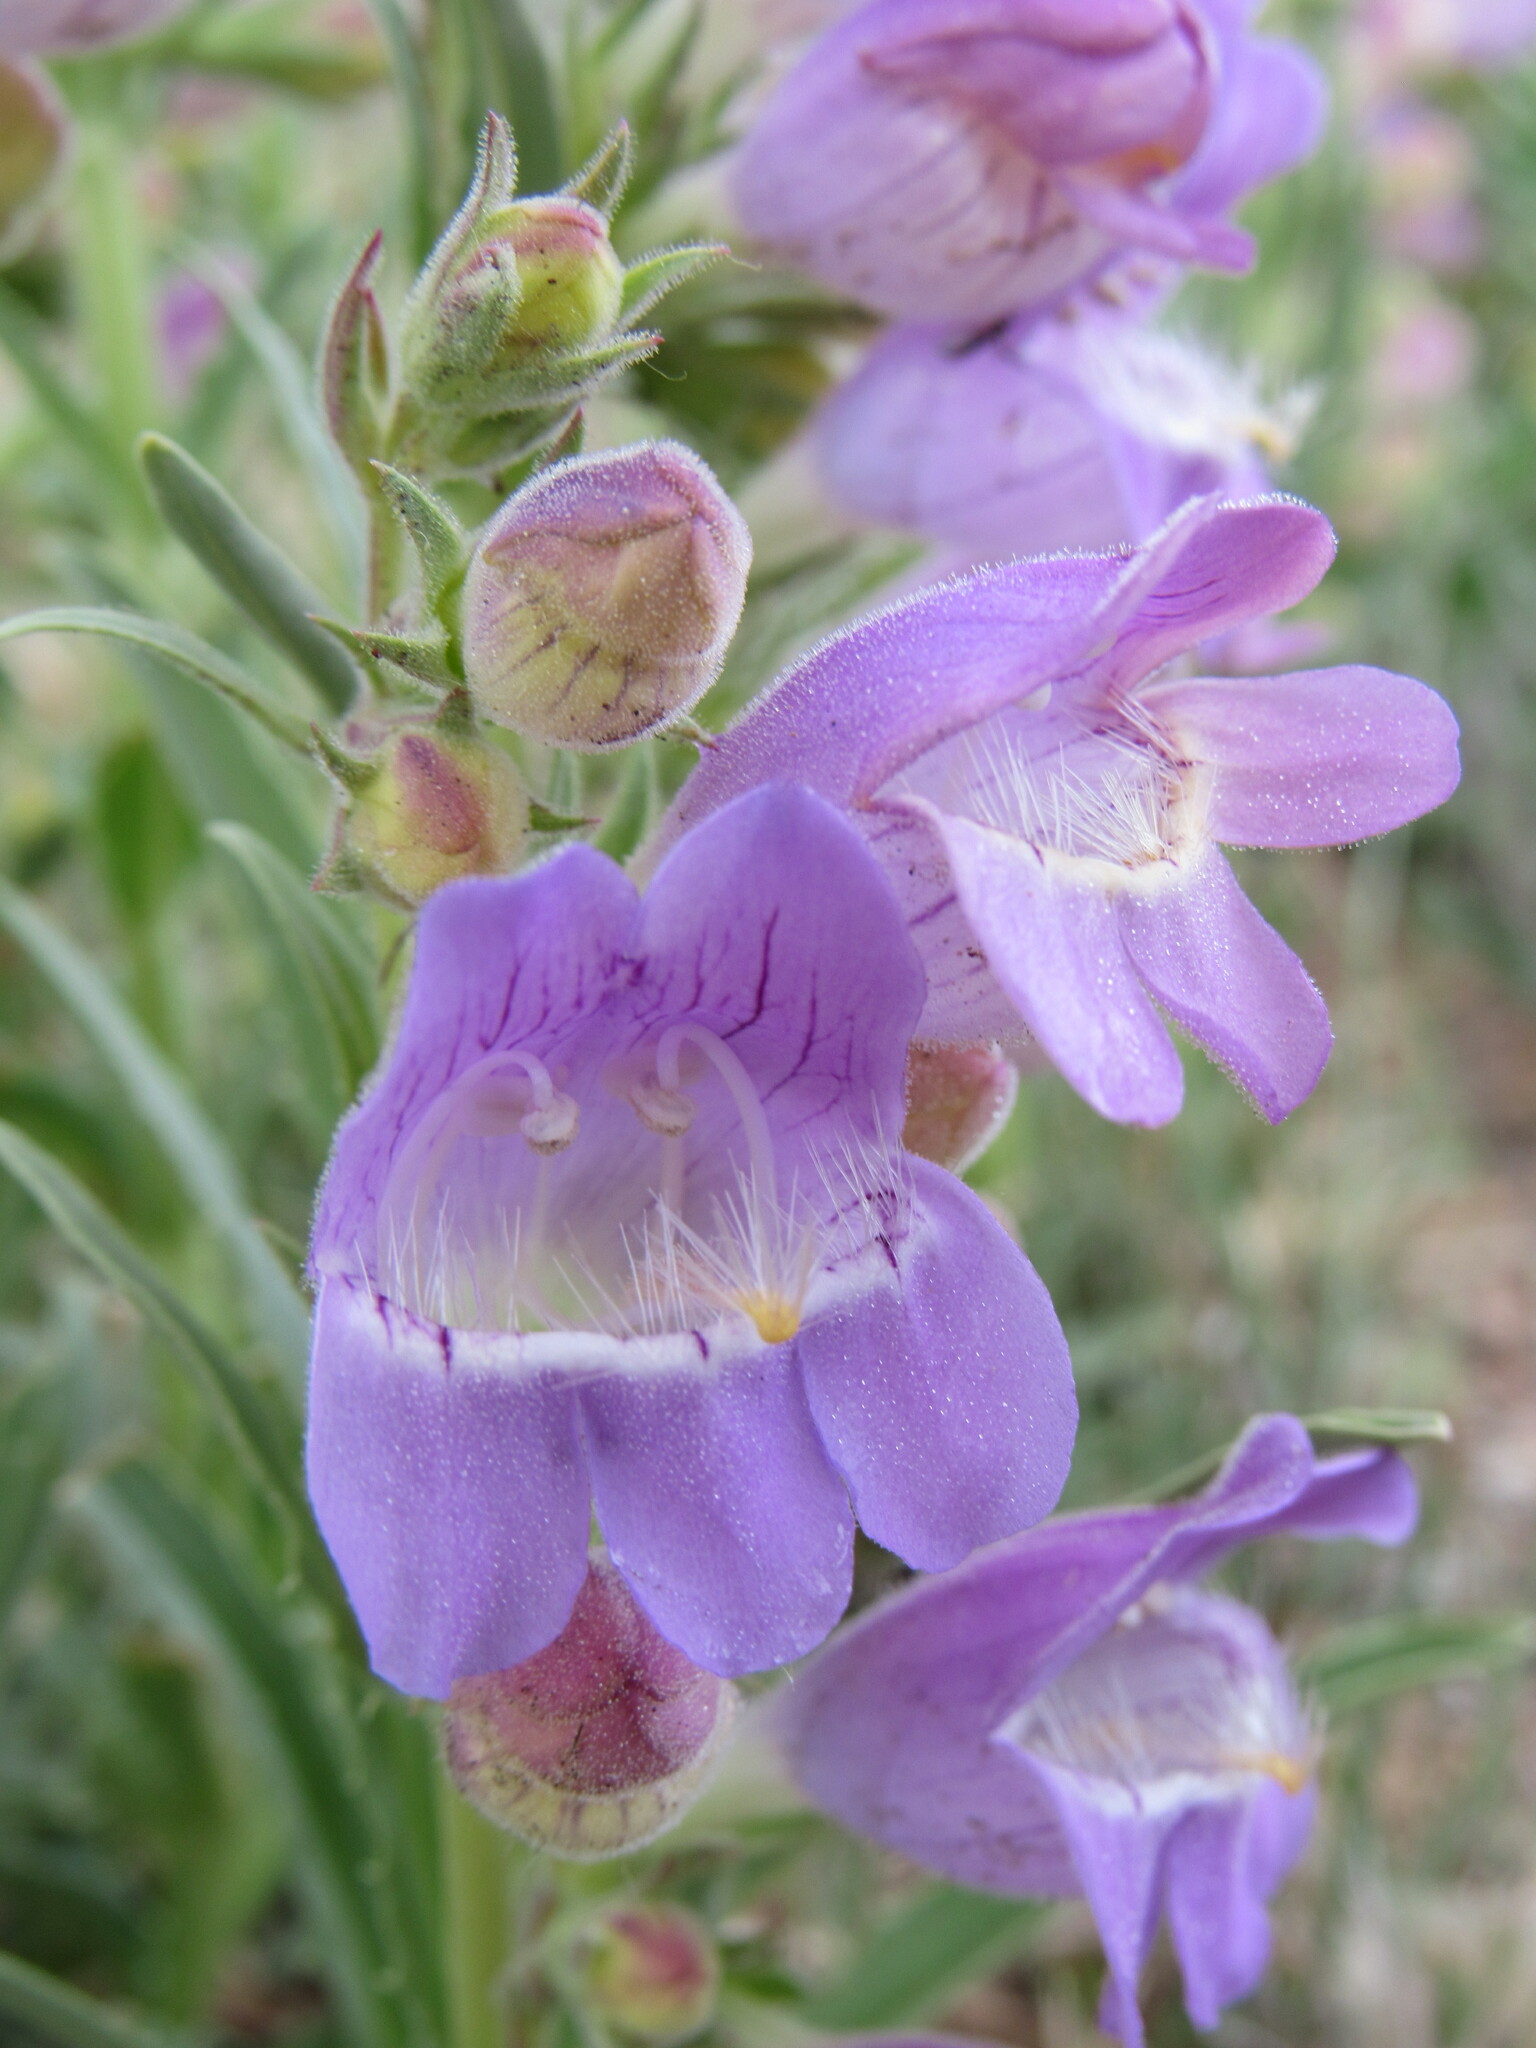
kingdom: Plantae
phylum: Tracheophyta
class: Magnoliopsida
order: Lamiales
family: Plantaginaceae
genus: Penstemon
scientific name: Penstemon jamesii
